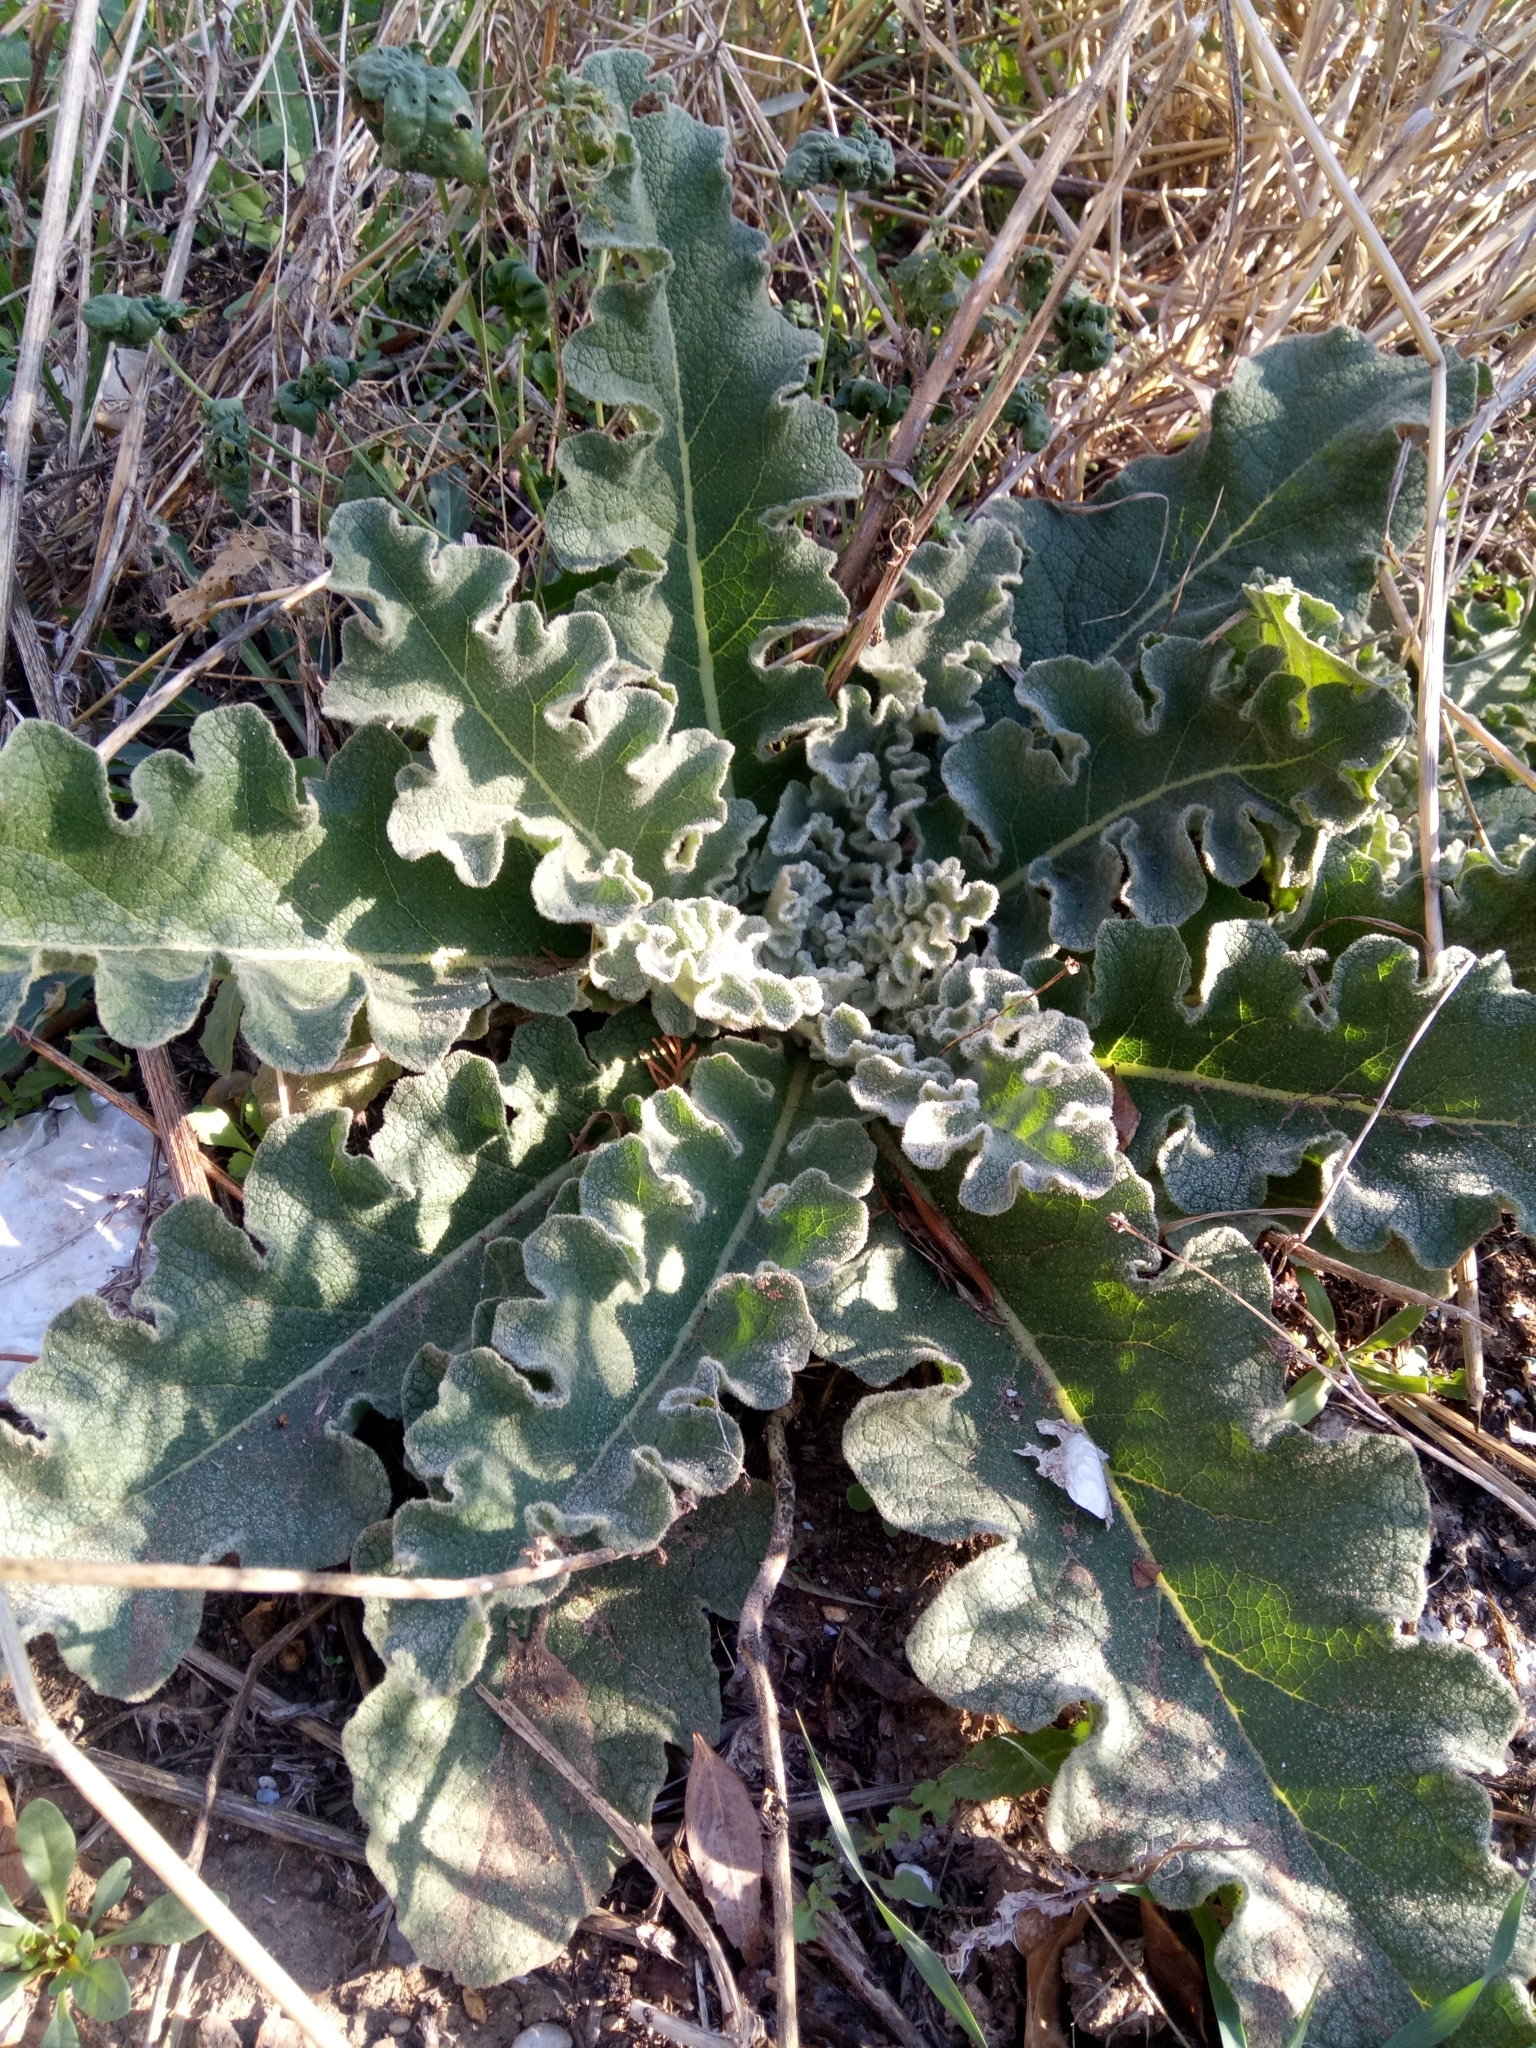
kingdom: Plantae
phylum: Tracheophyta
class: Magnoliopsida
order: Lamiales
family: Scrophulariaceae
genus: Verbascum
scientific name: Verbascum sinuatum
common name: Wavyleaf mullein
